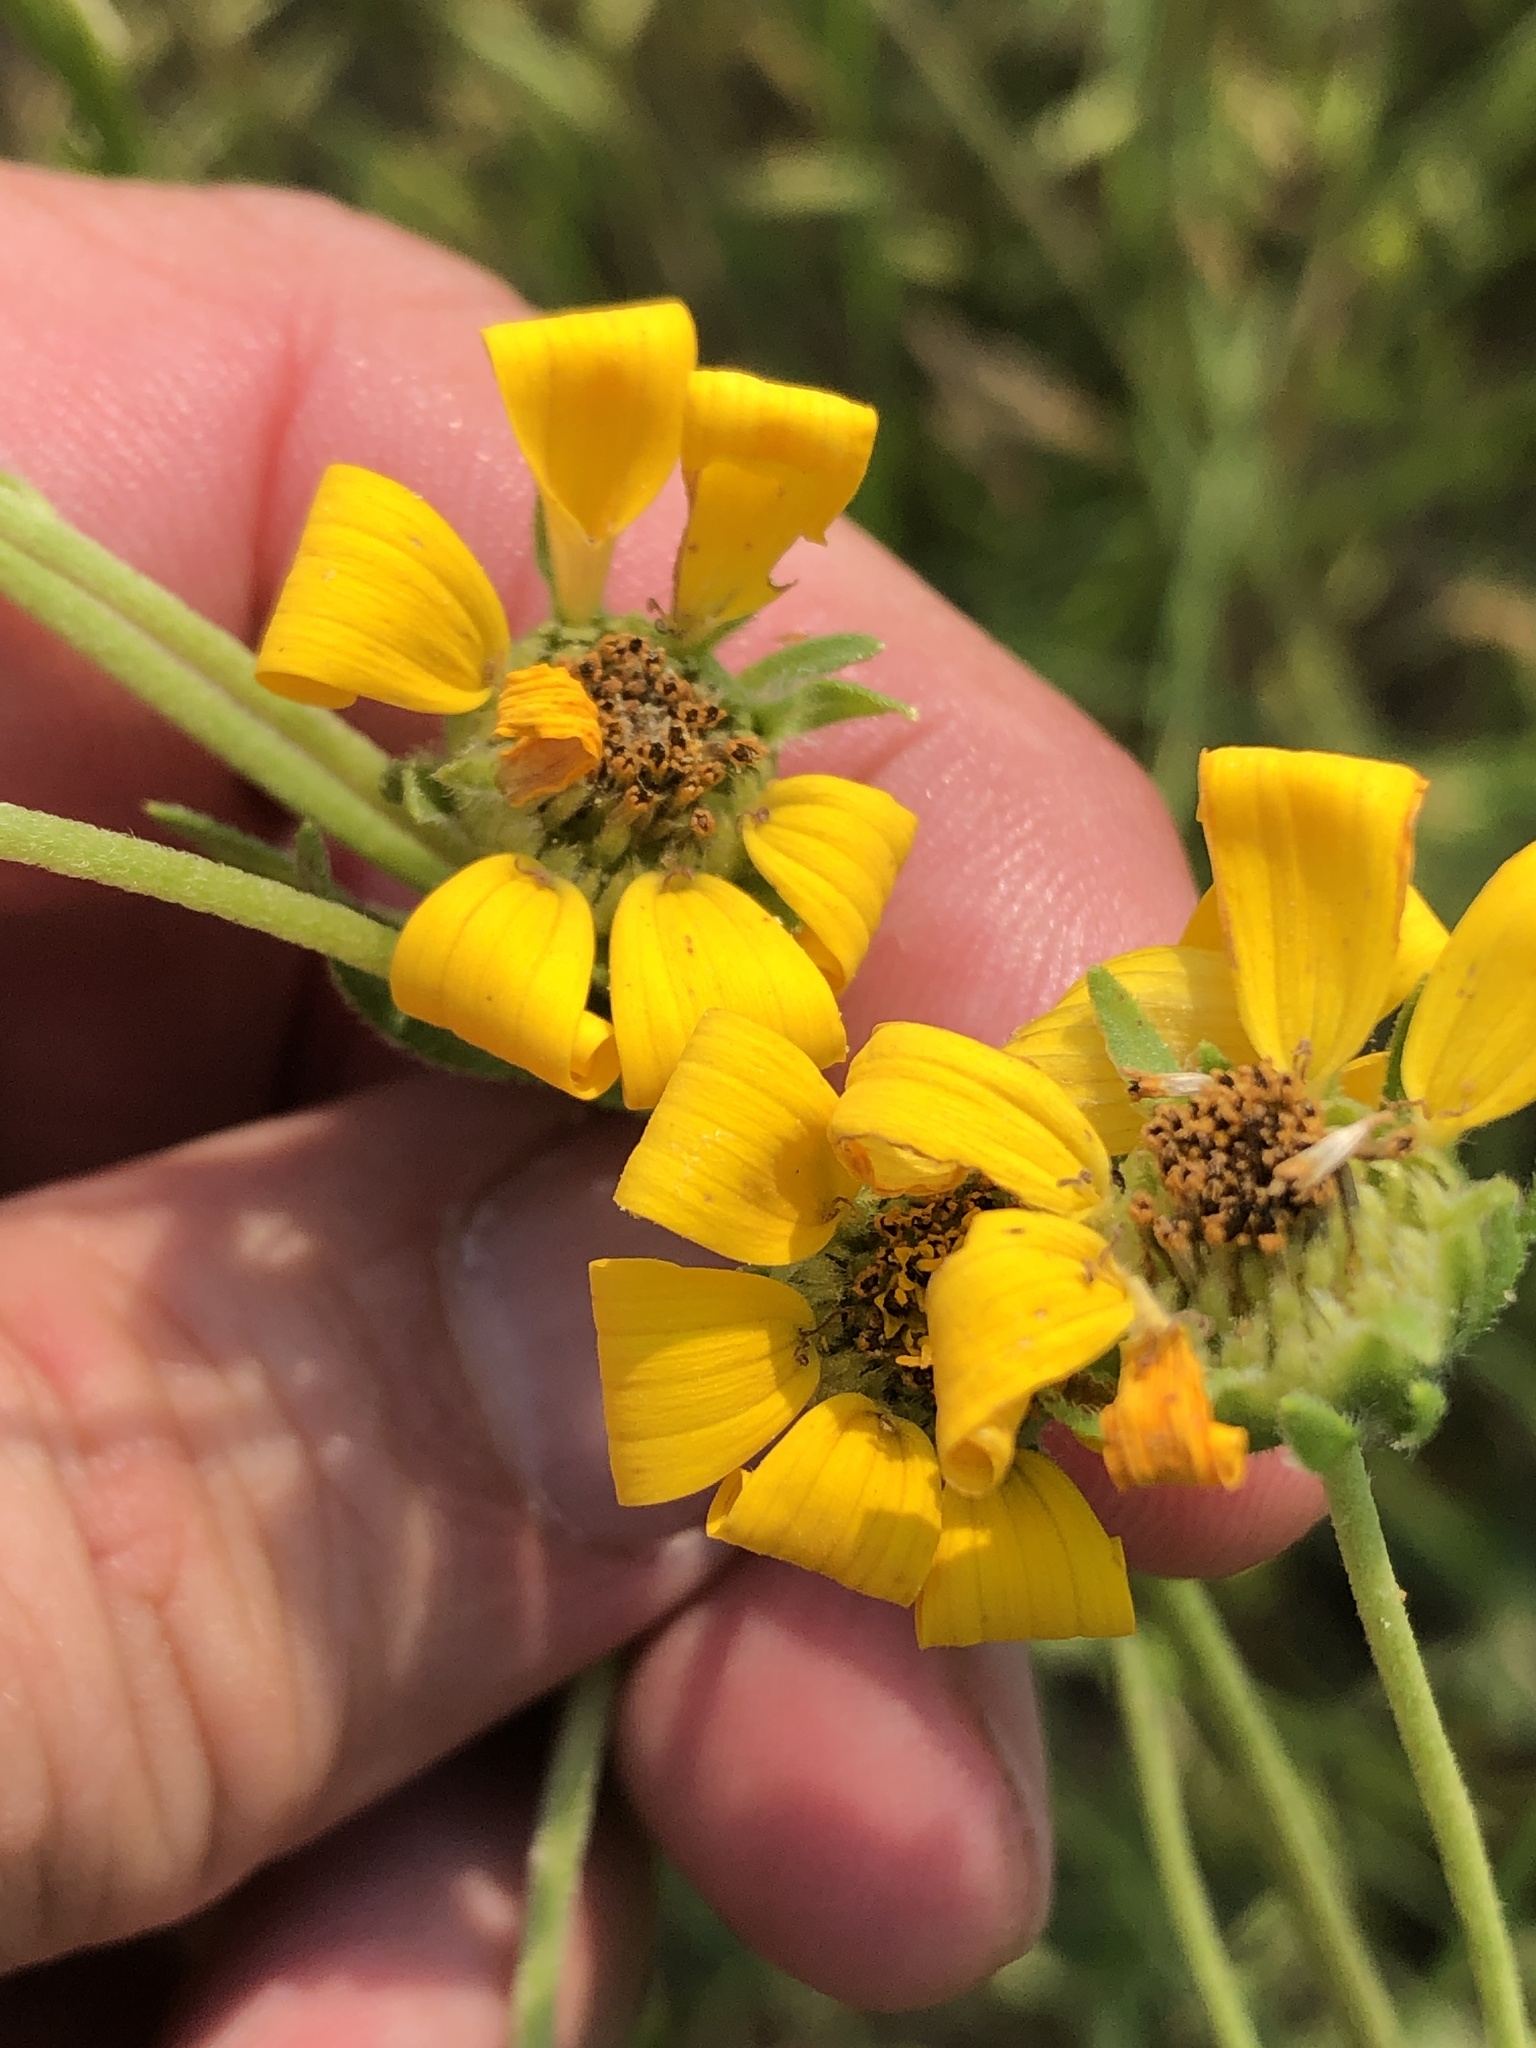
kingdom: Plantae
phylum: Tracheophyta
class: Magnoliopsida
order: Asterales
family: Asteraceae
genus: Engelmannia
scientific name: Engelmannia peristenia
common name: Engelmann's daisy
